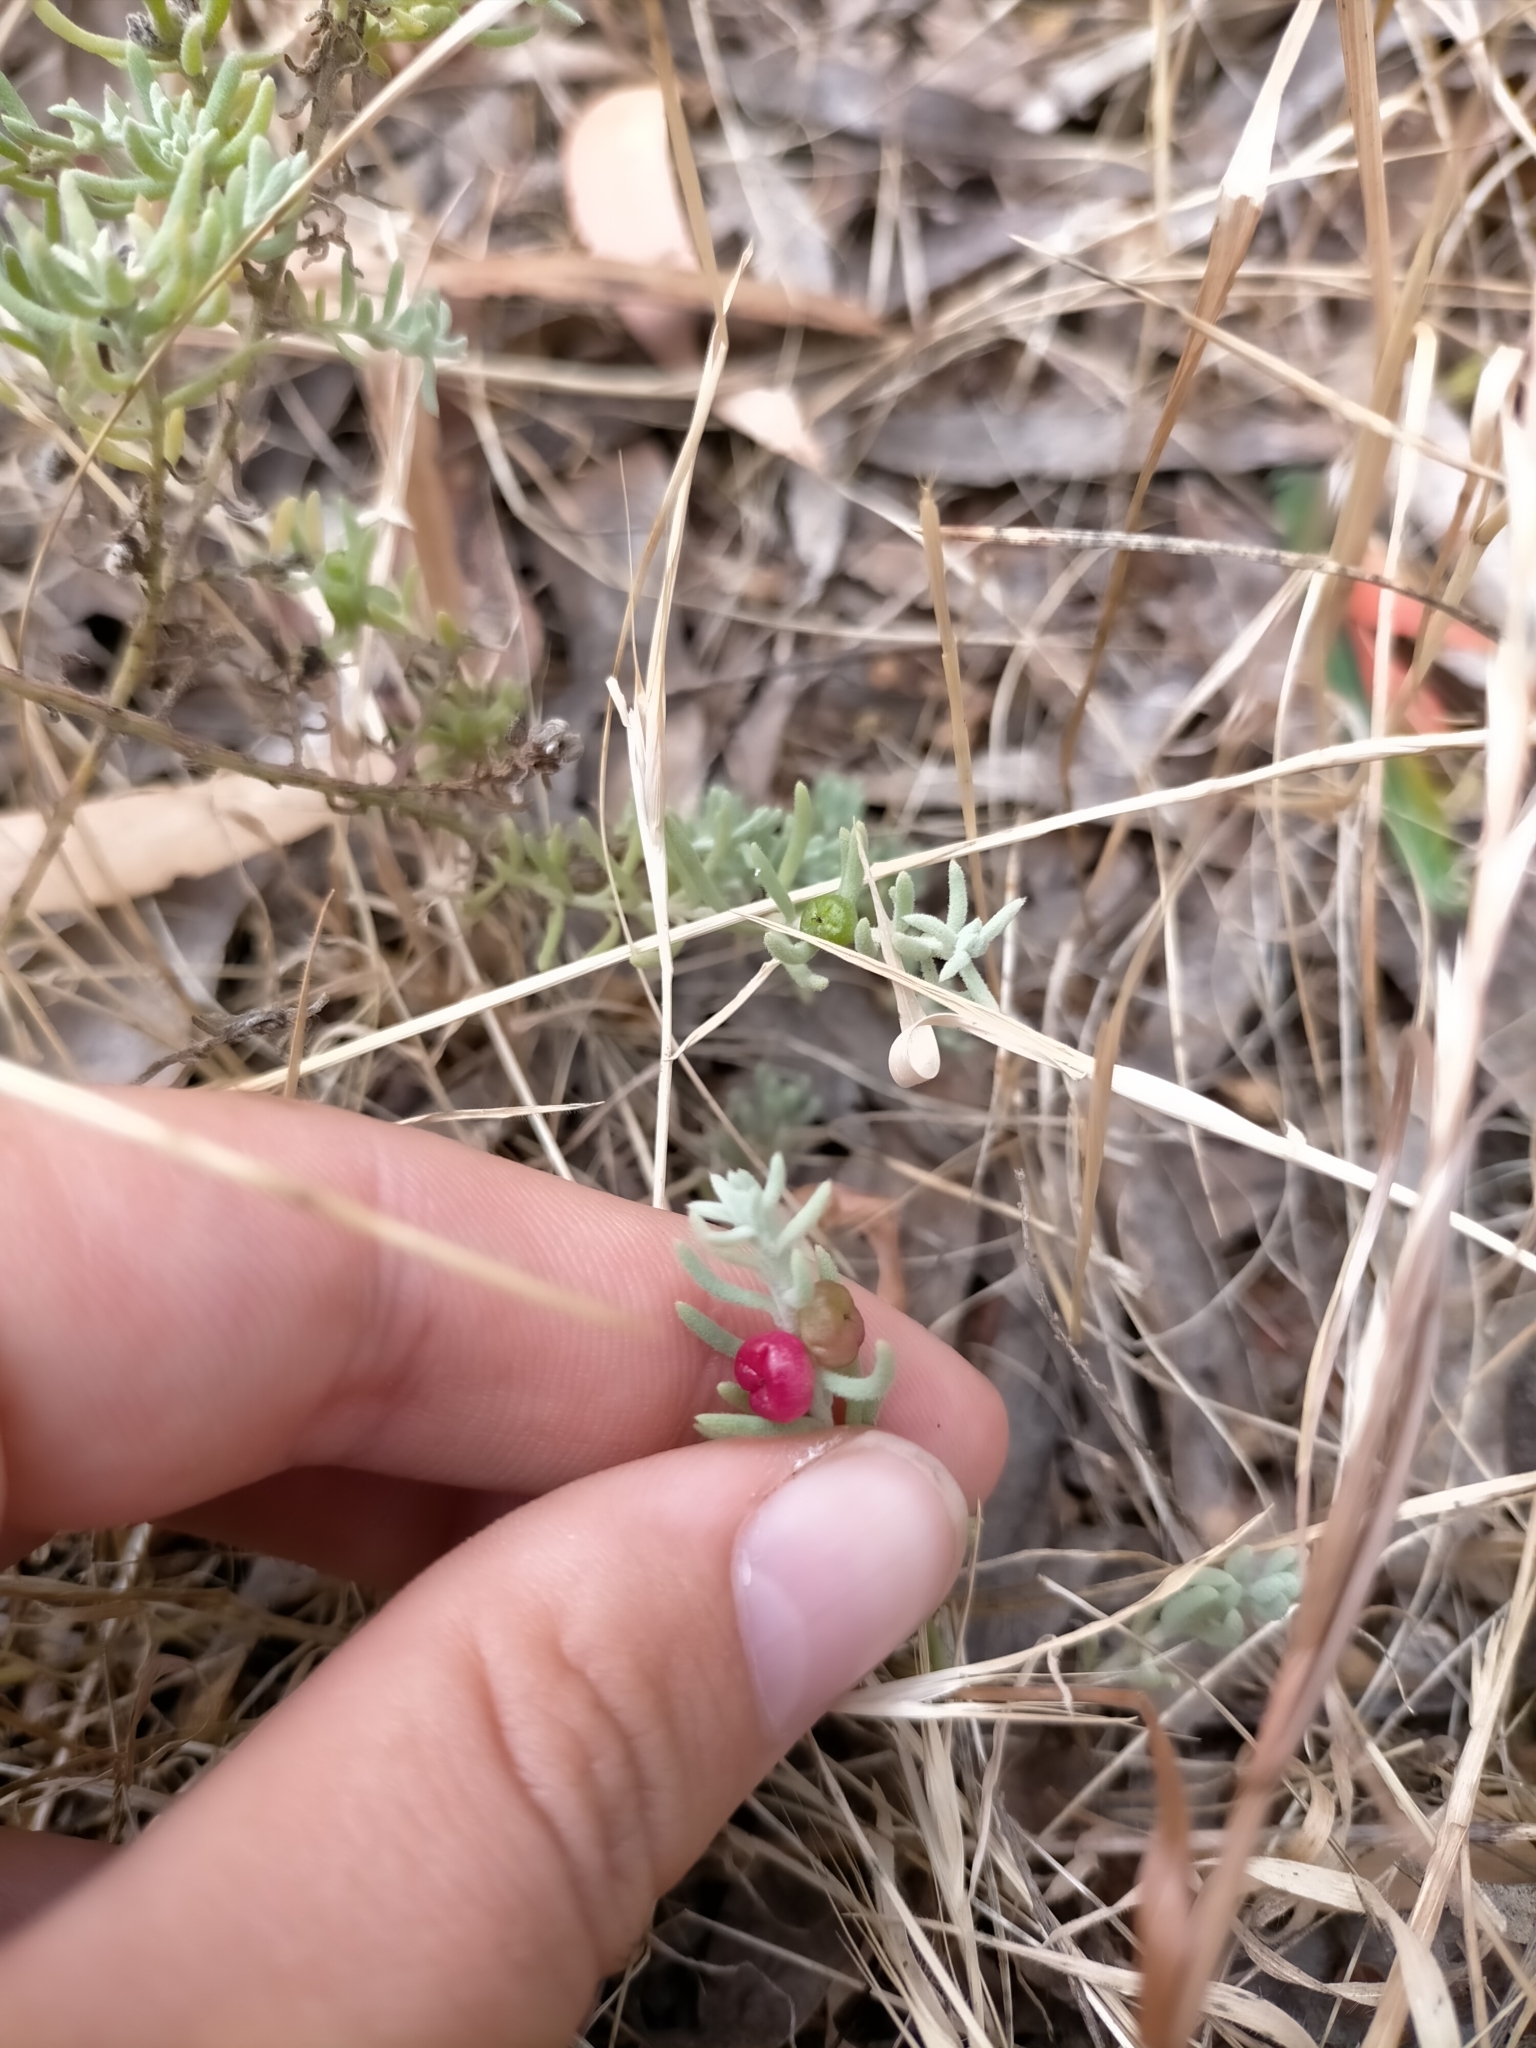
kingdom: Plantae
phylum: Tracheophyta
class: Magnoliopsida
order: Caryophyllales
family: Amaranthaceae
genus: Enchylaena
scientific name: Enchylaena tomentosa
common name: Ruby saltbush
